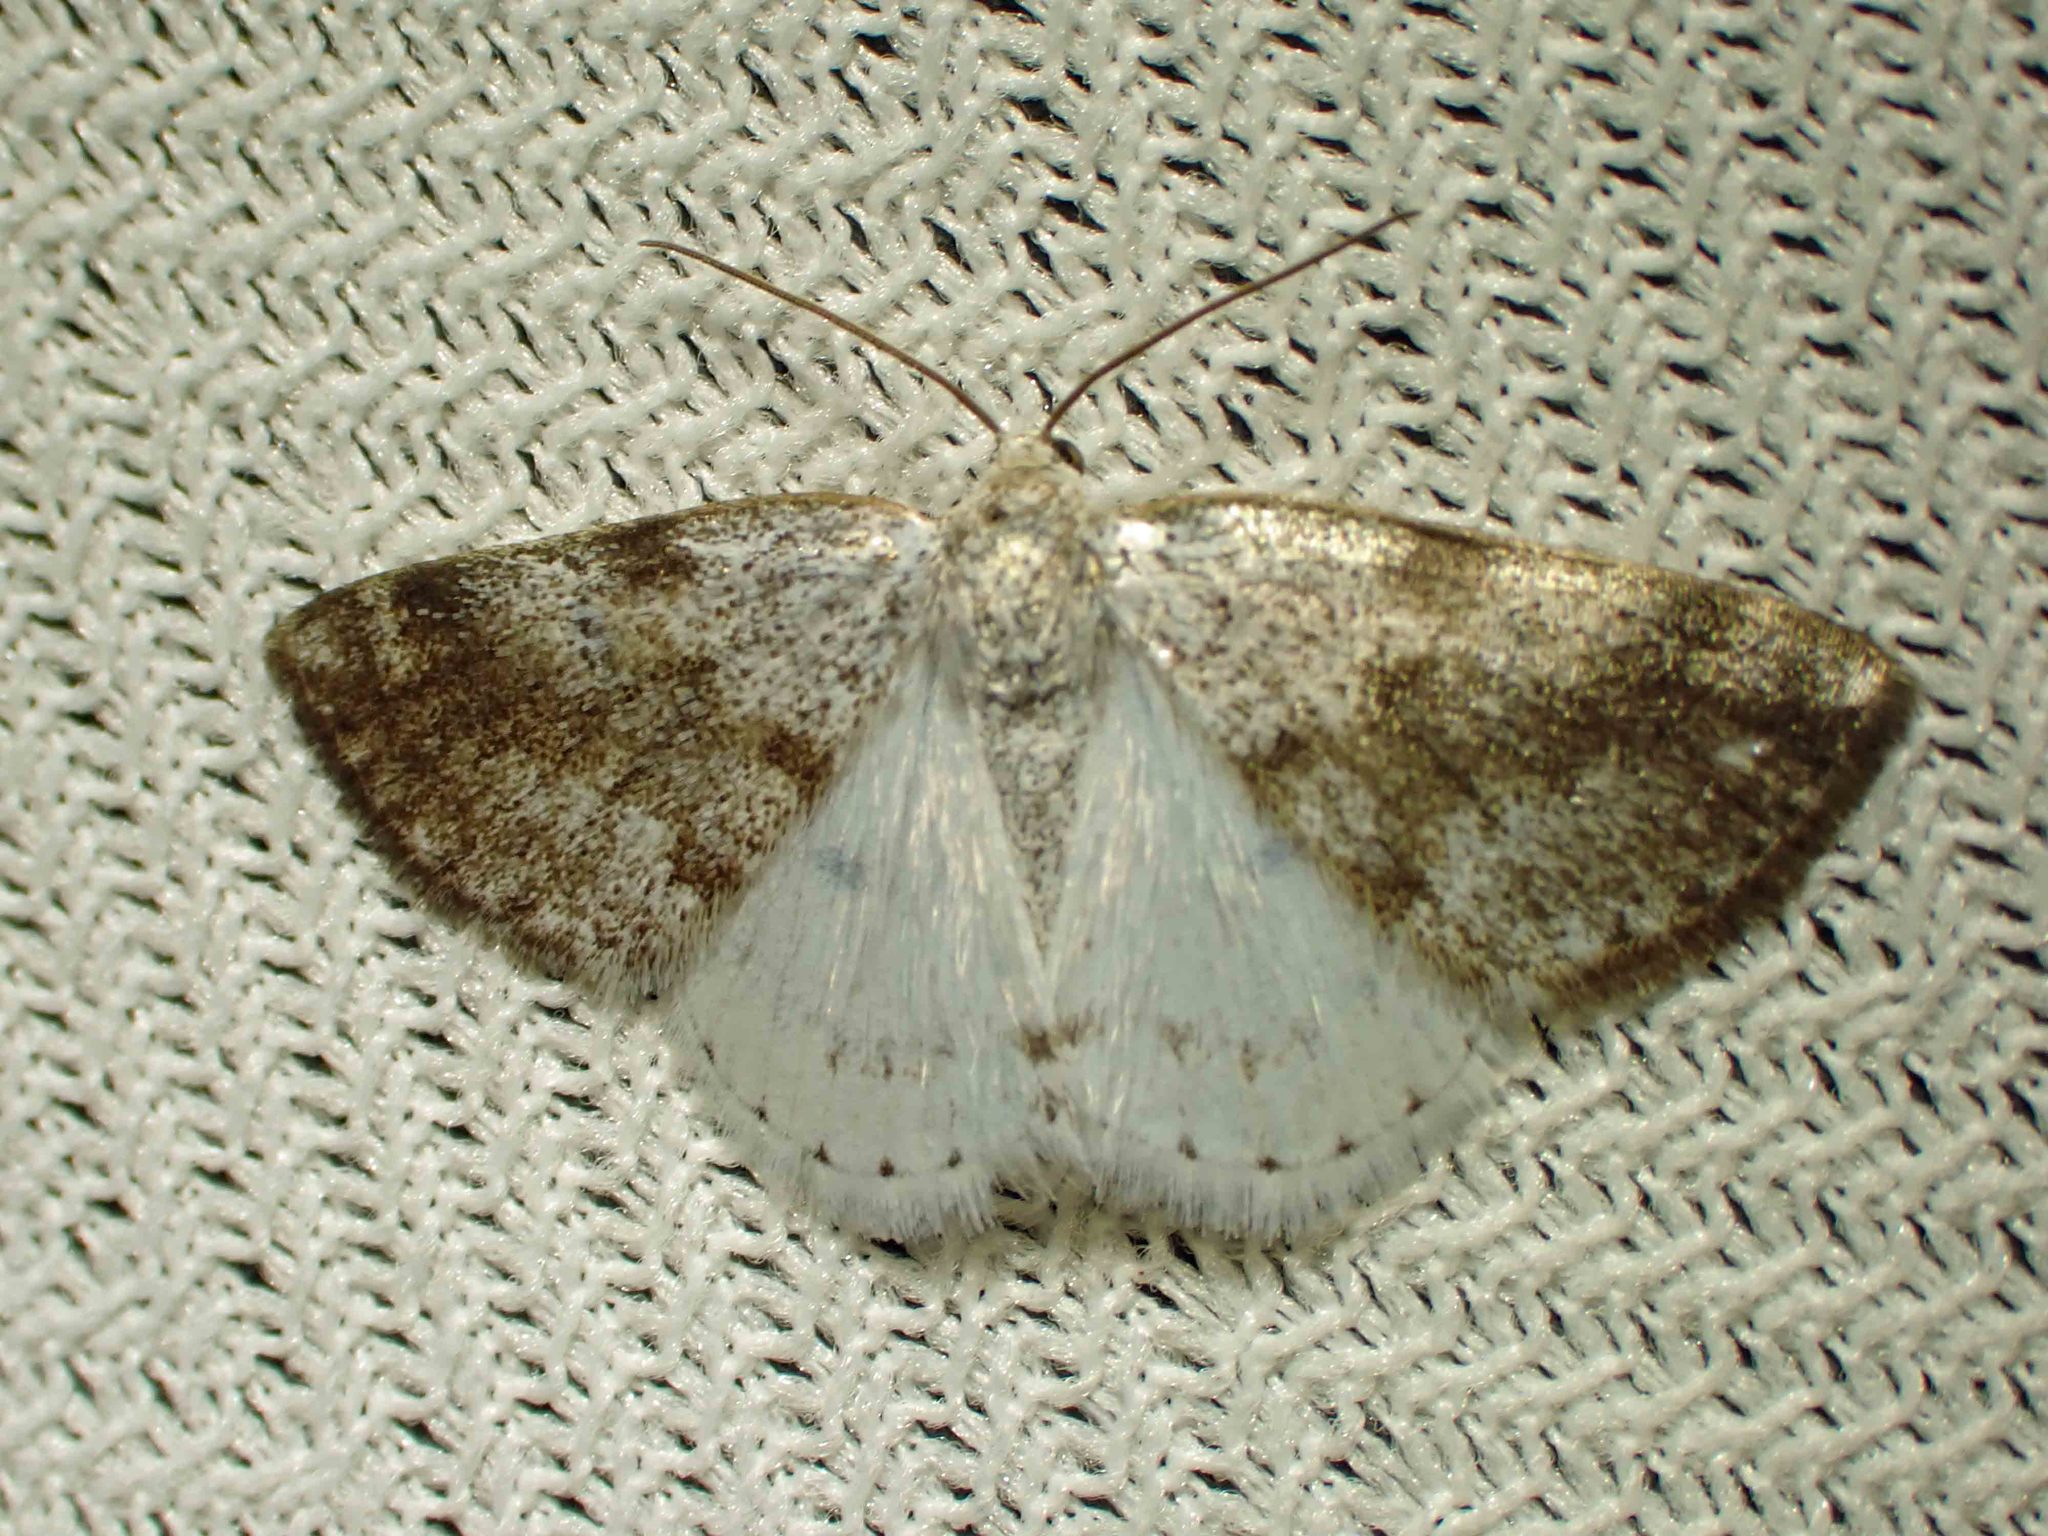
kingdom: Animalia
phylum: Arthropoda
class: Insecta
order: Lepidoptera
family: Geometridae
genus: Lomographa
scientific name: Lomographa semiclarata
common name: Bluish spring moth
